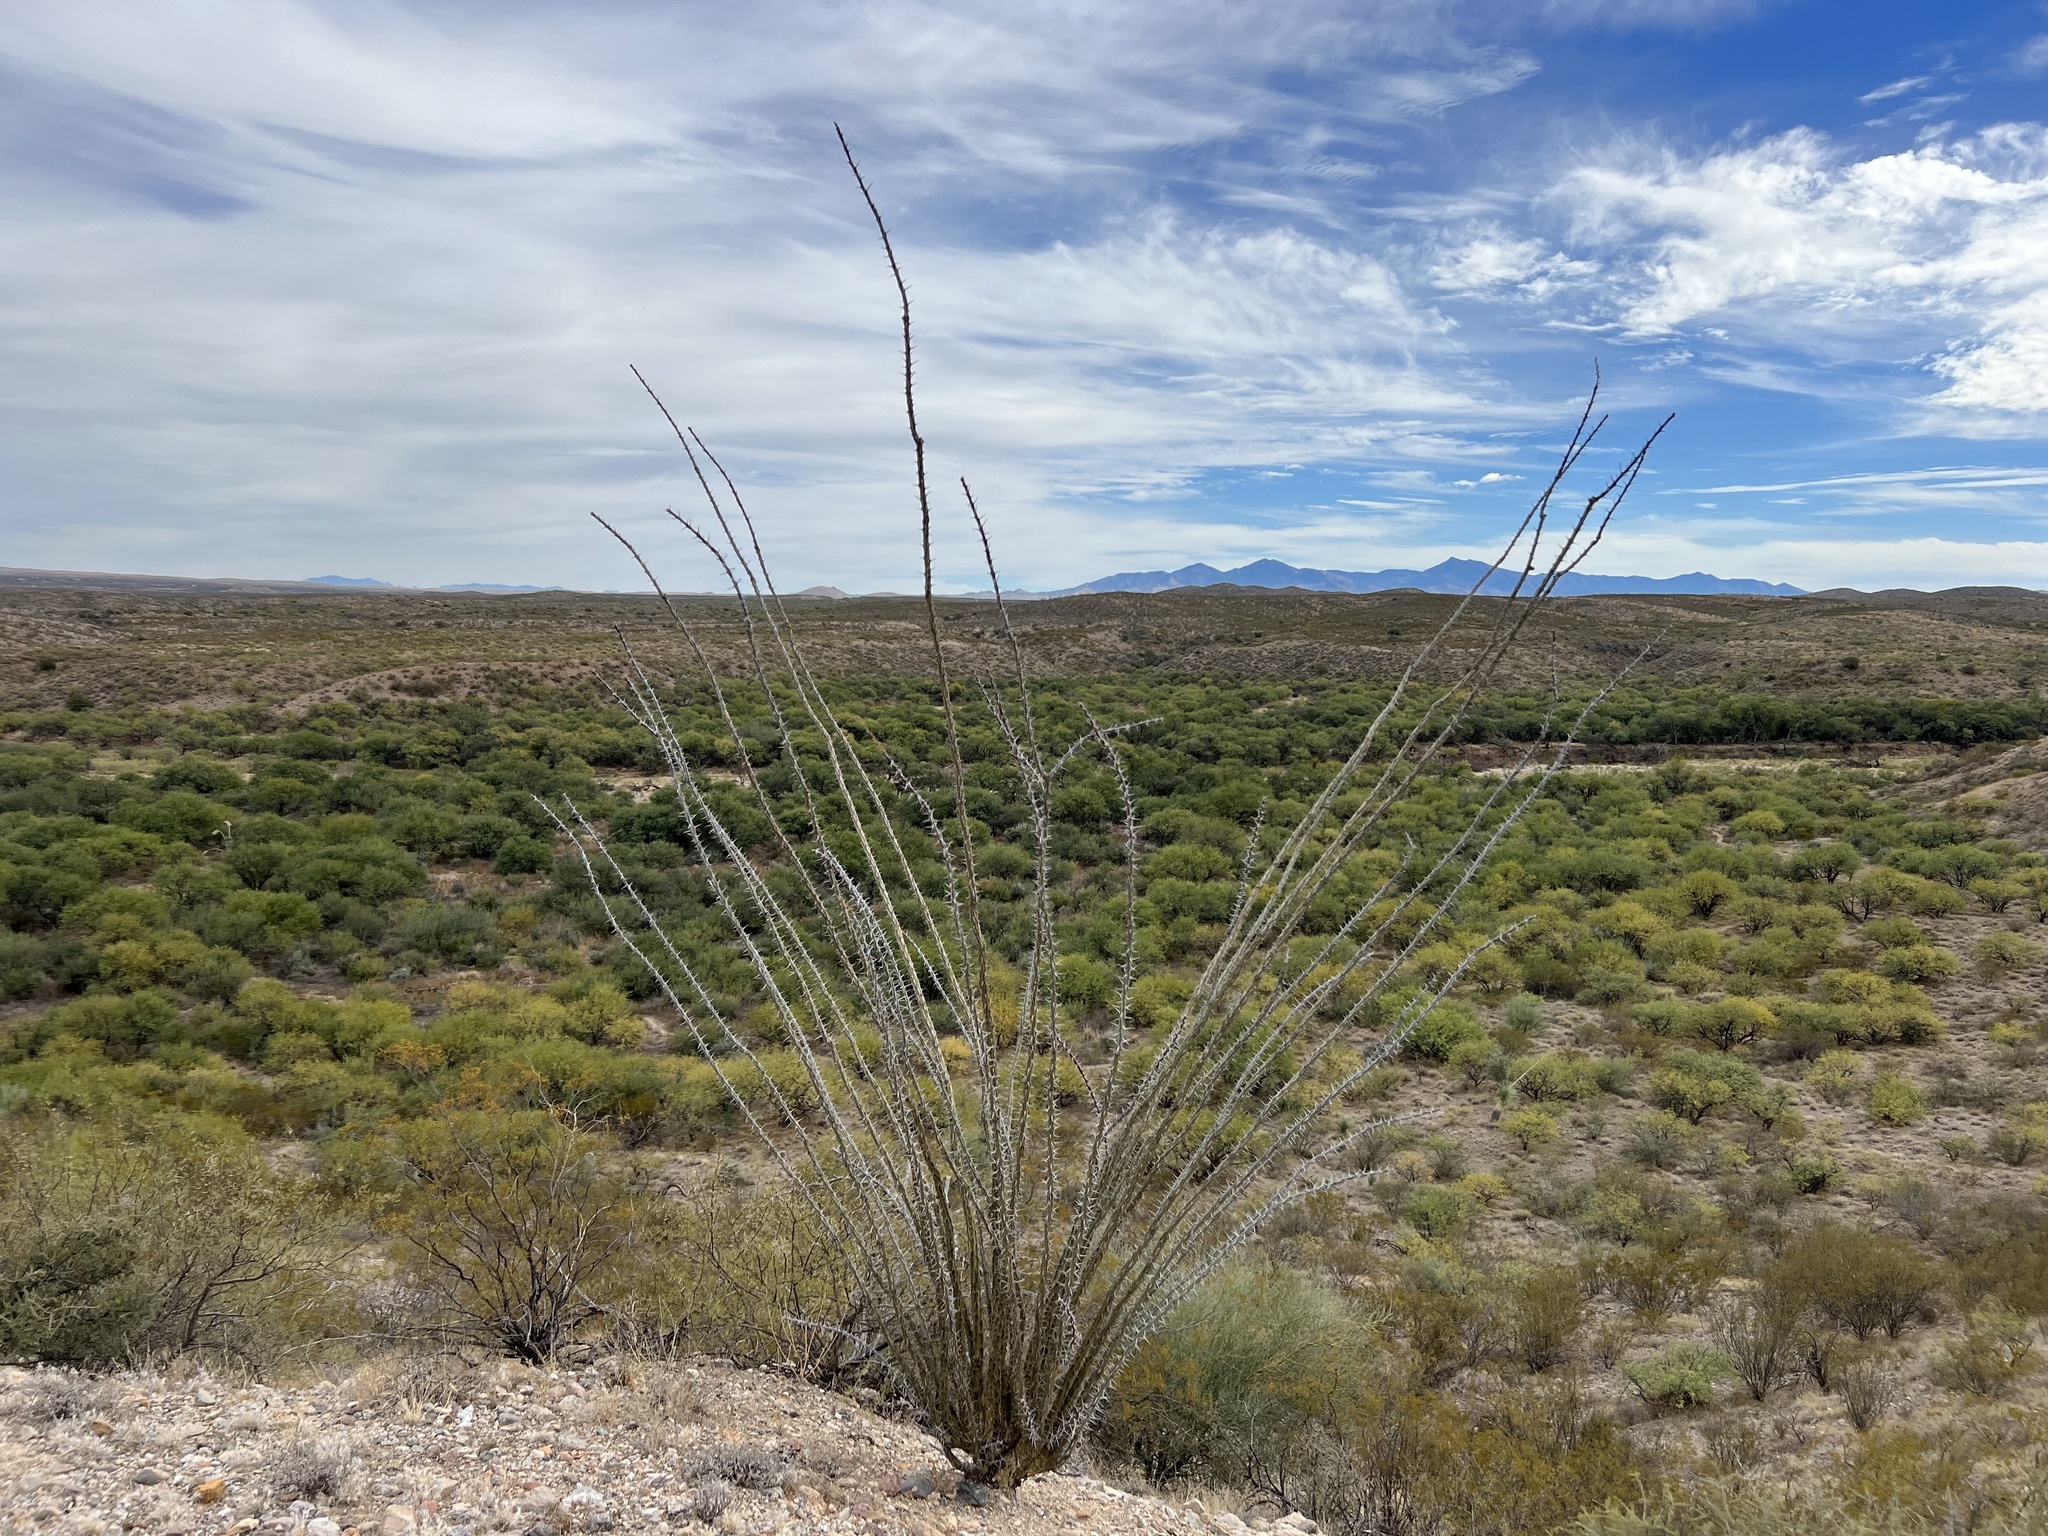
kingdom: Plantae
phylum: Tracheophyta
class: Magnoliopsida
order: Ericales
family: Fouquieriaceae
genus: Fouquieria
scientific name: Fouquieria splendens
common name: Vine-cactus
